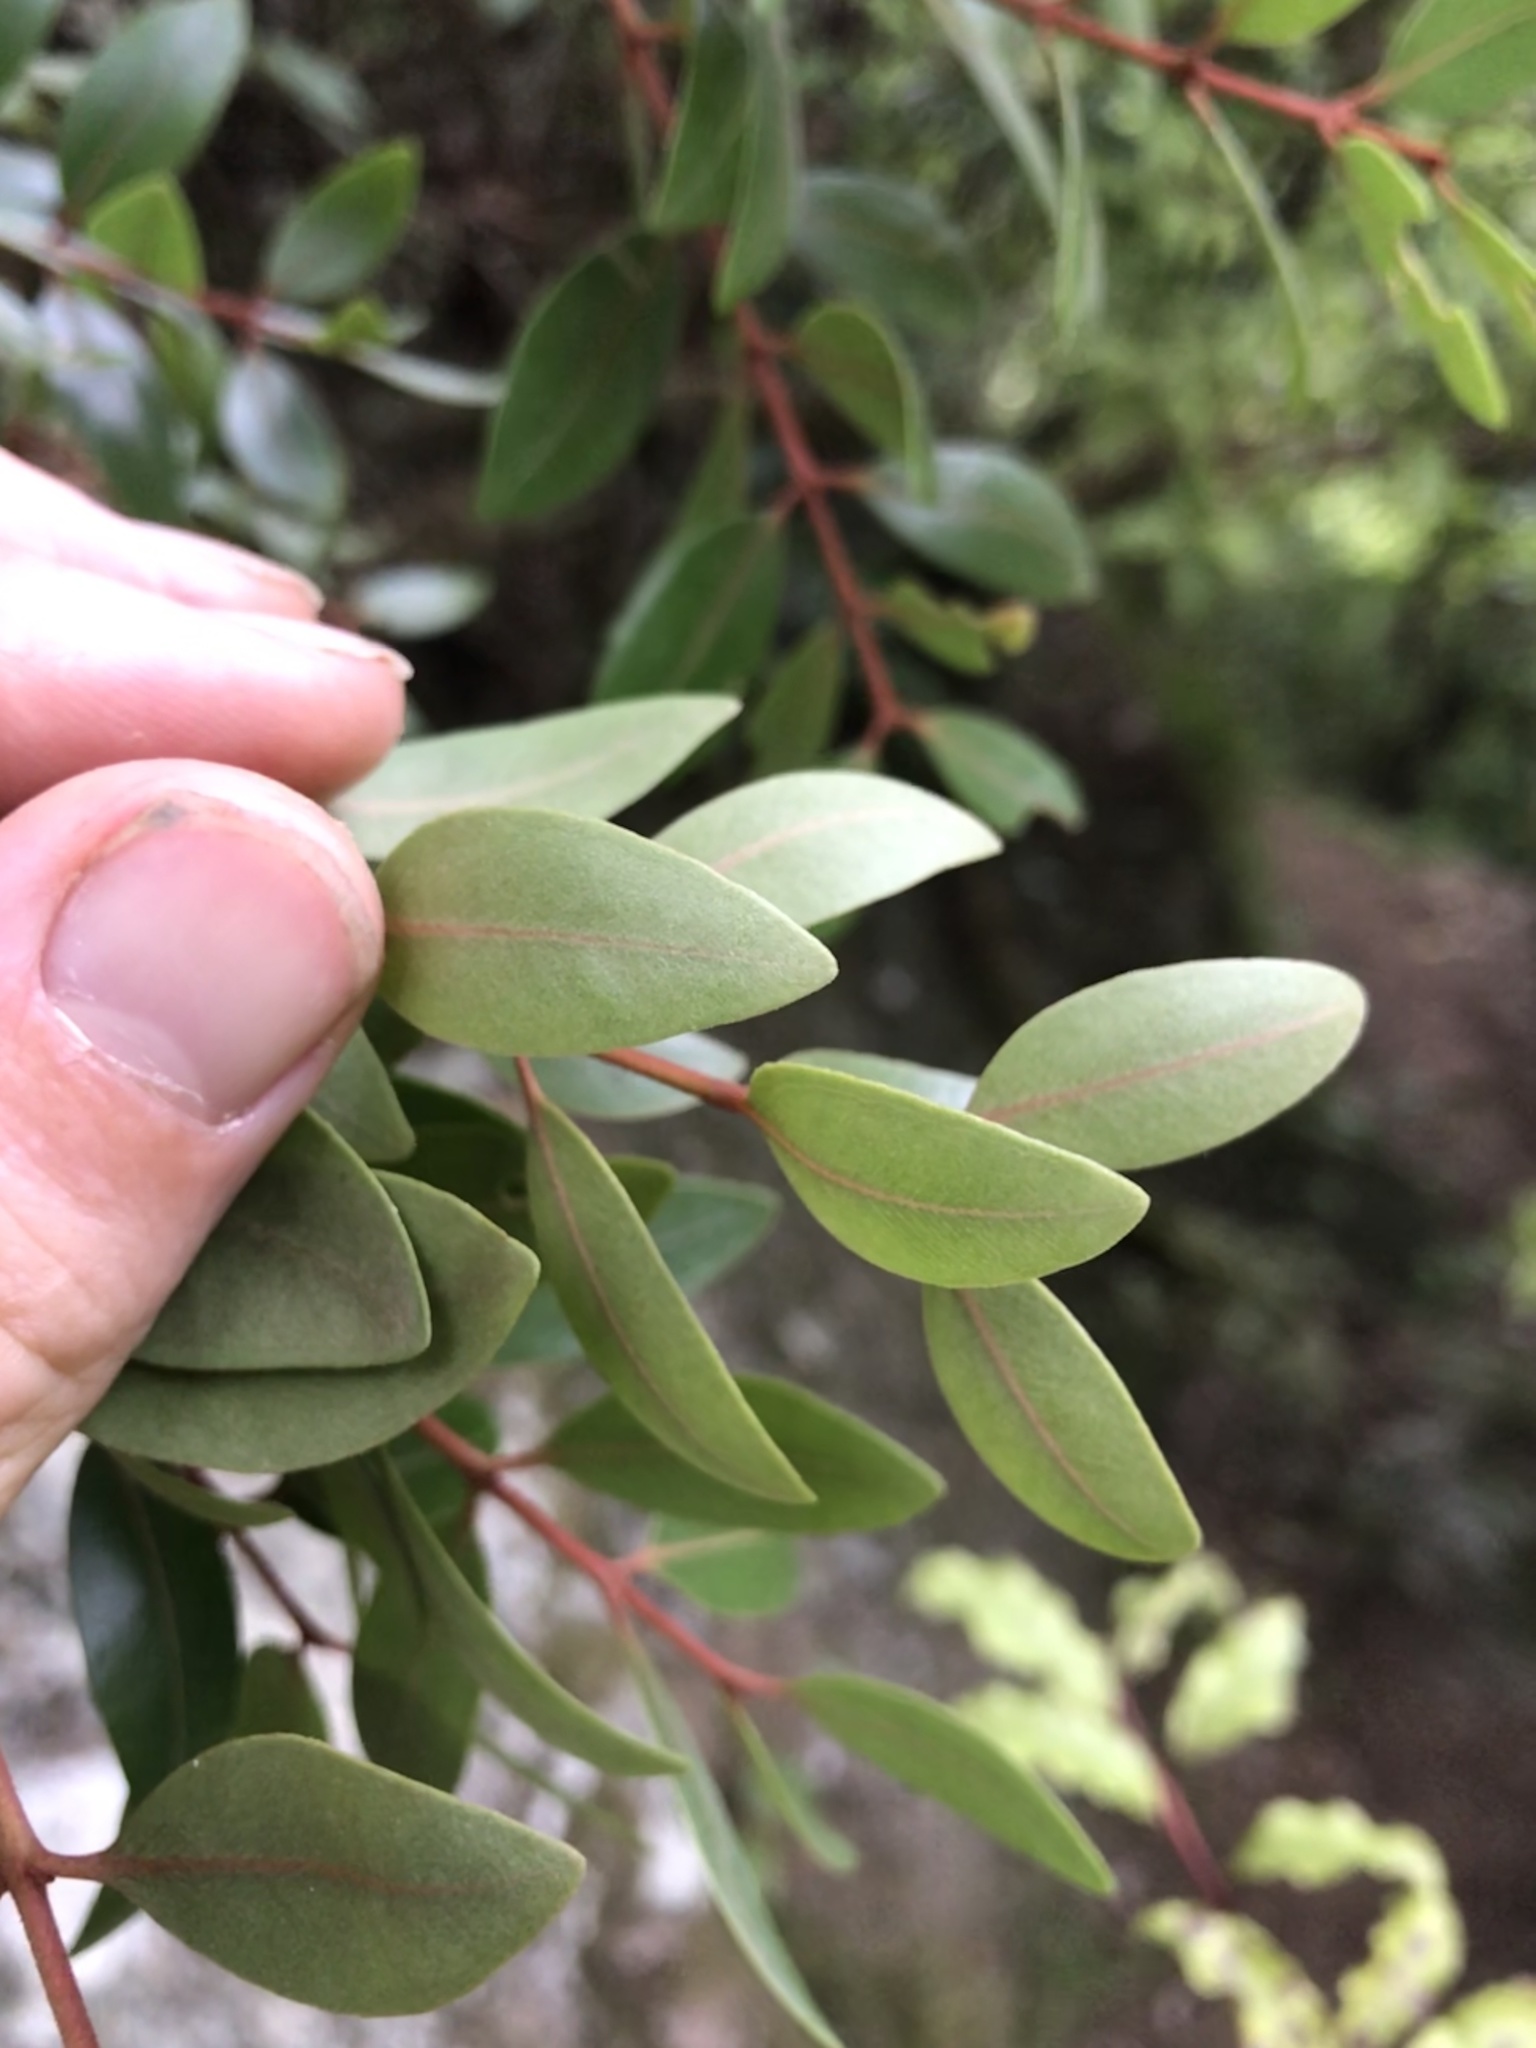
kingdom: Plantae
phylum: Tracheophyta
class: Magnoliopsida
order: Myrtales
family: Myrtaceae
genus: Metrosideros
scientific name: Metrosideros robusta
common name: Northern rata
